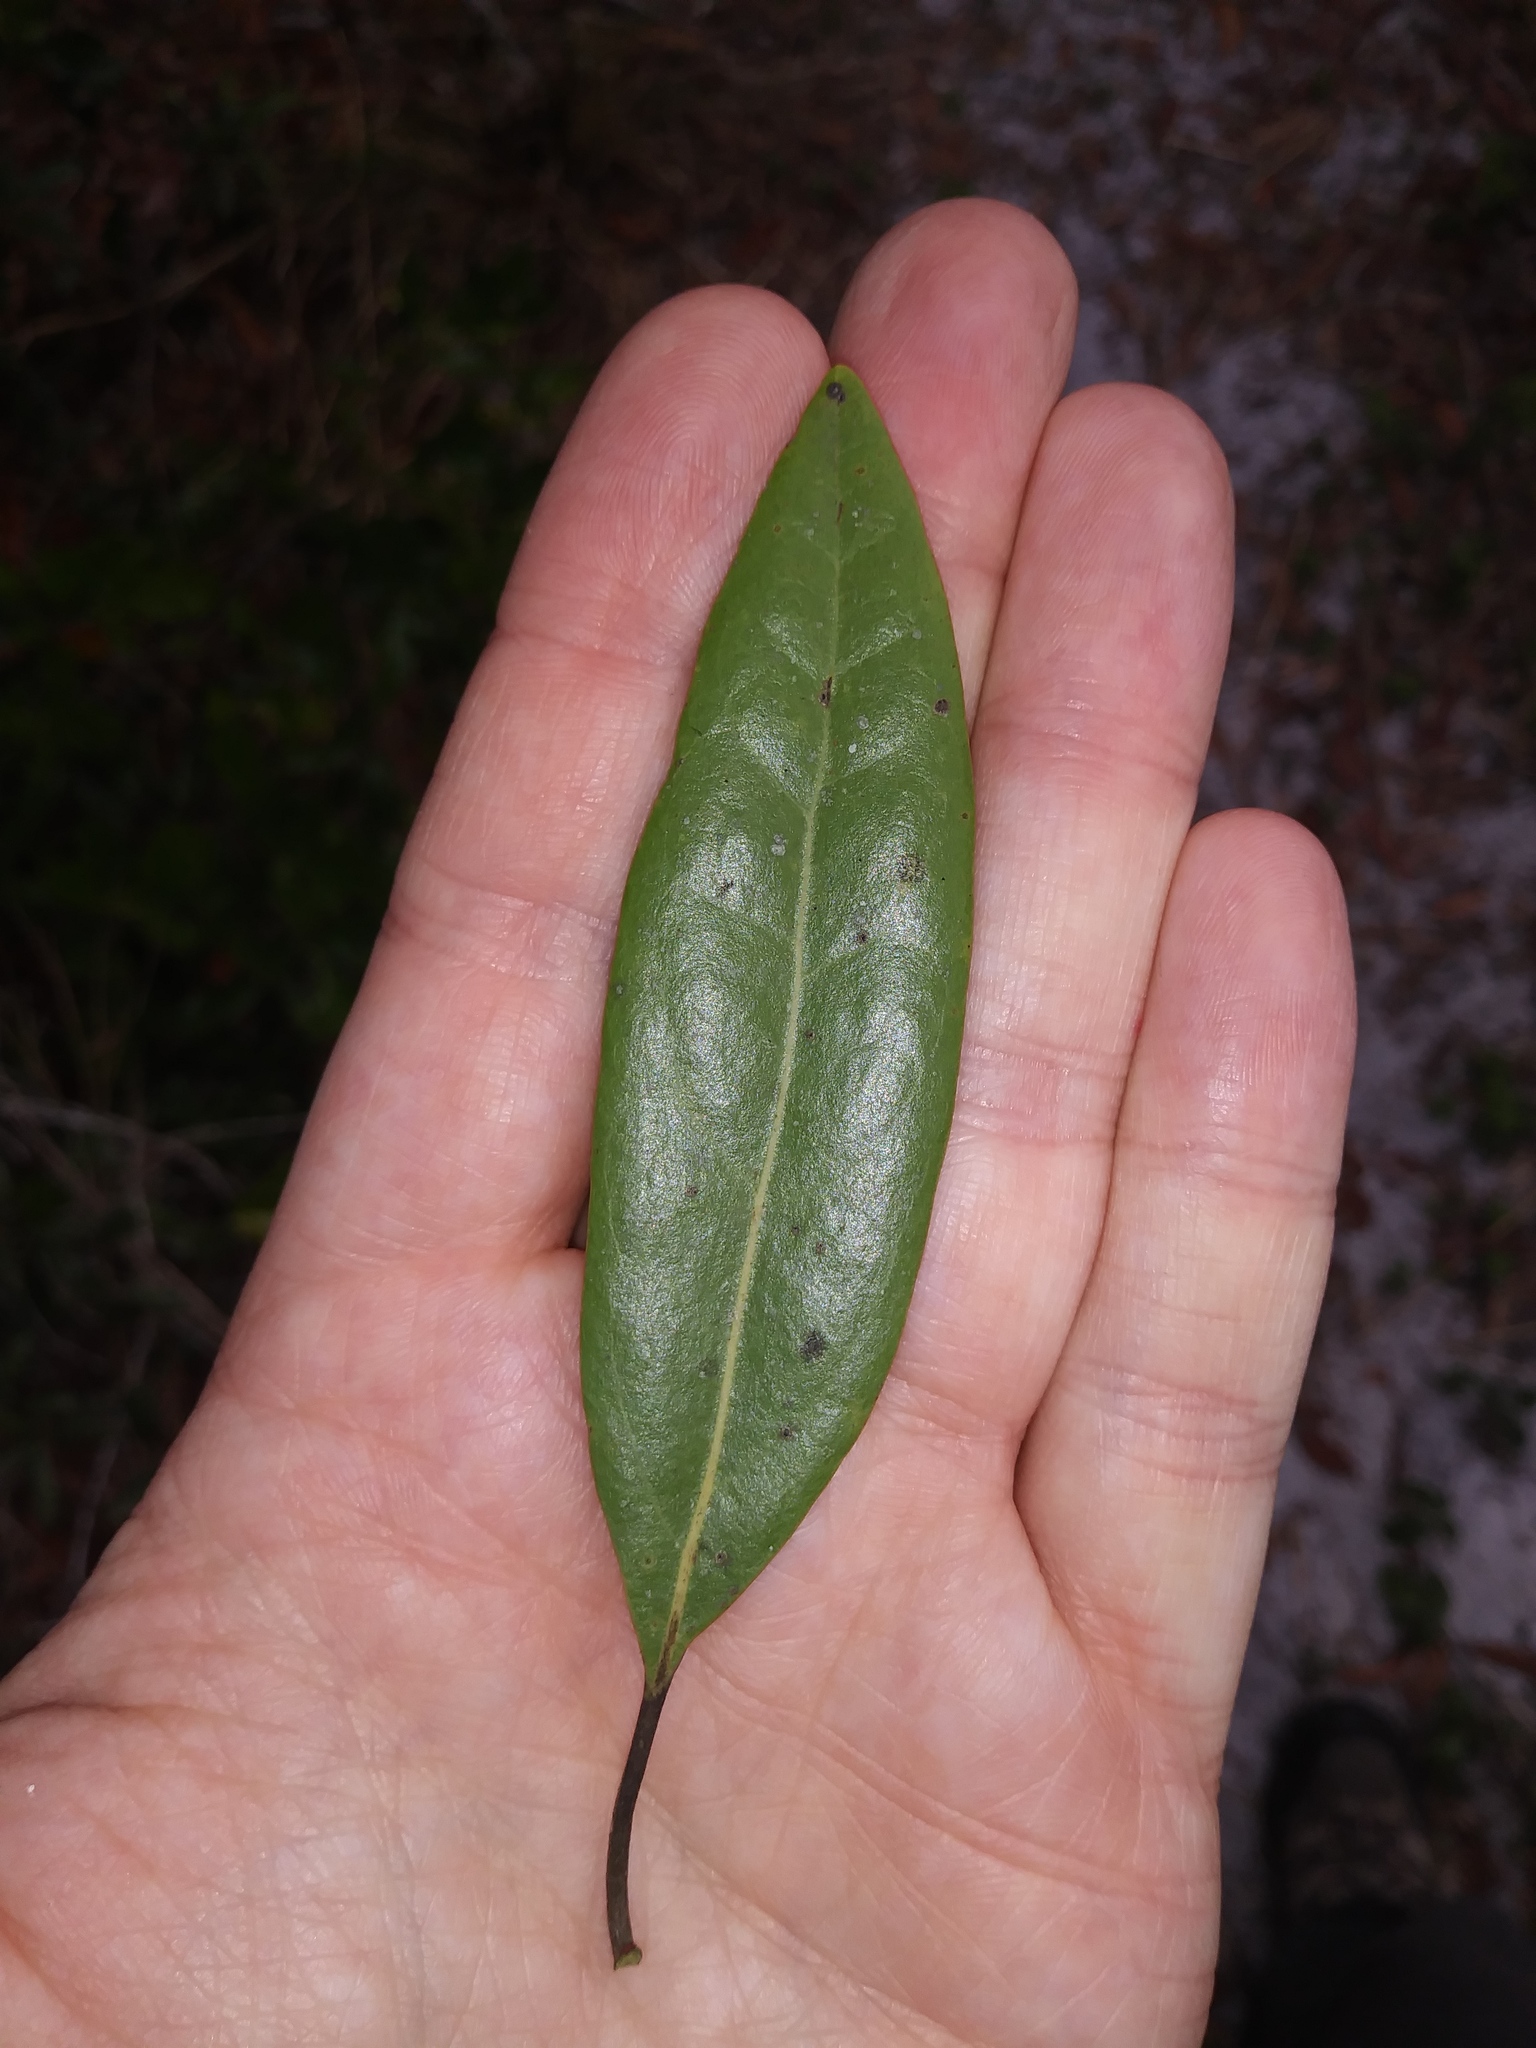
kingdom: Plantae
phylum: Tracheophyta
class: Magnoliopsida
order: Laurales
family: Lauraceae
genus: Persea
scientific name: Persea humilis
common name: Silkbay
